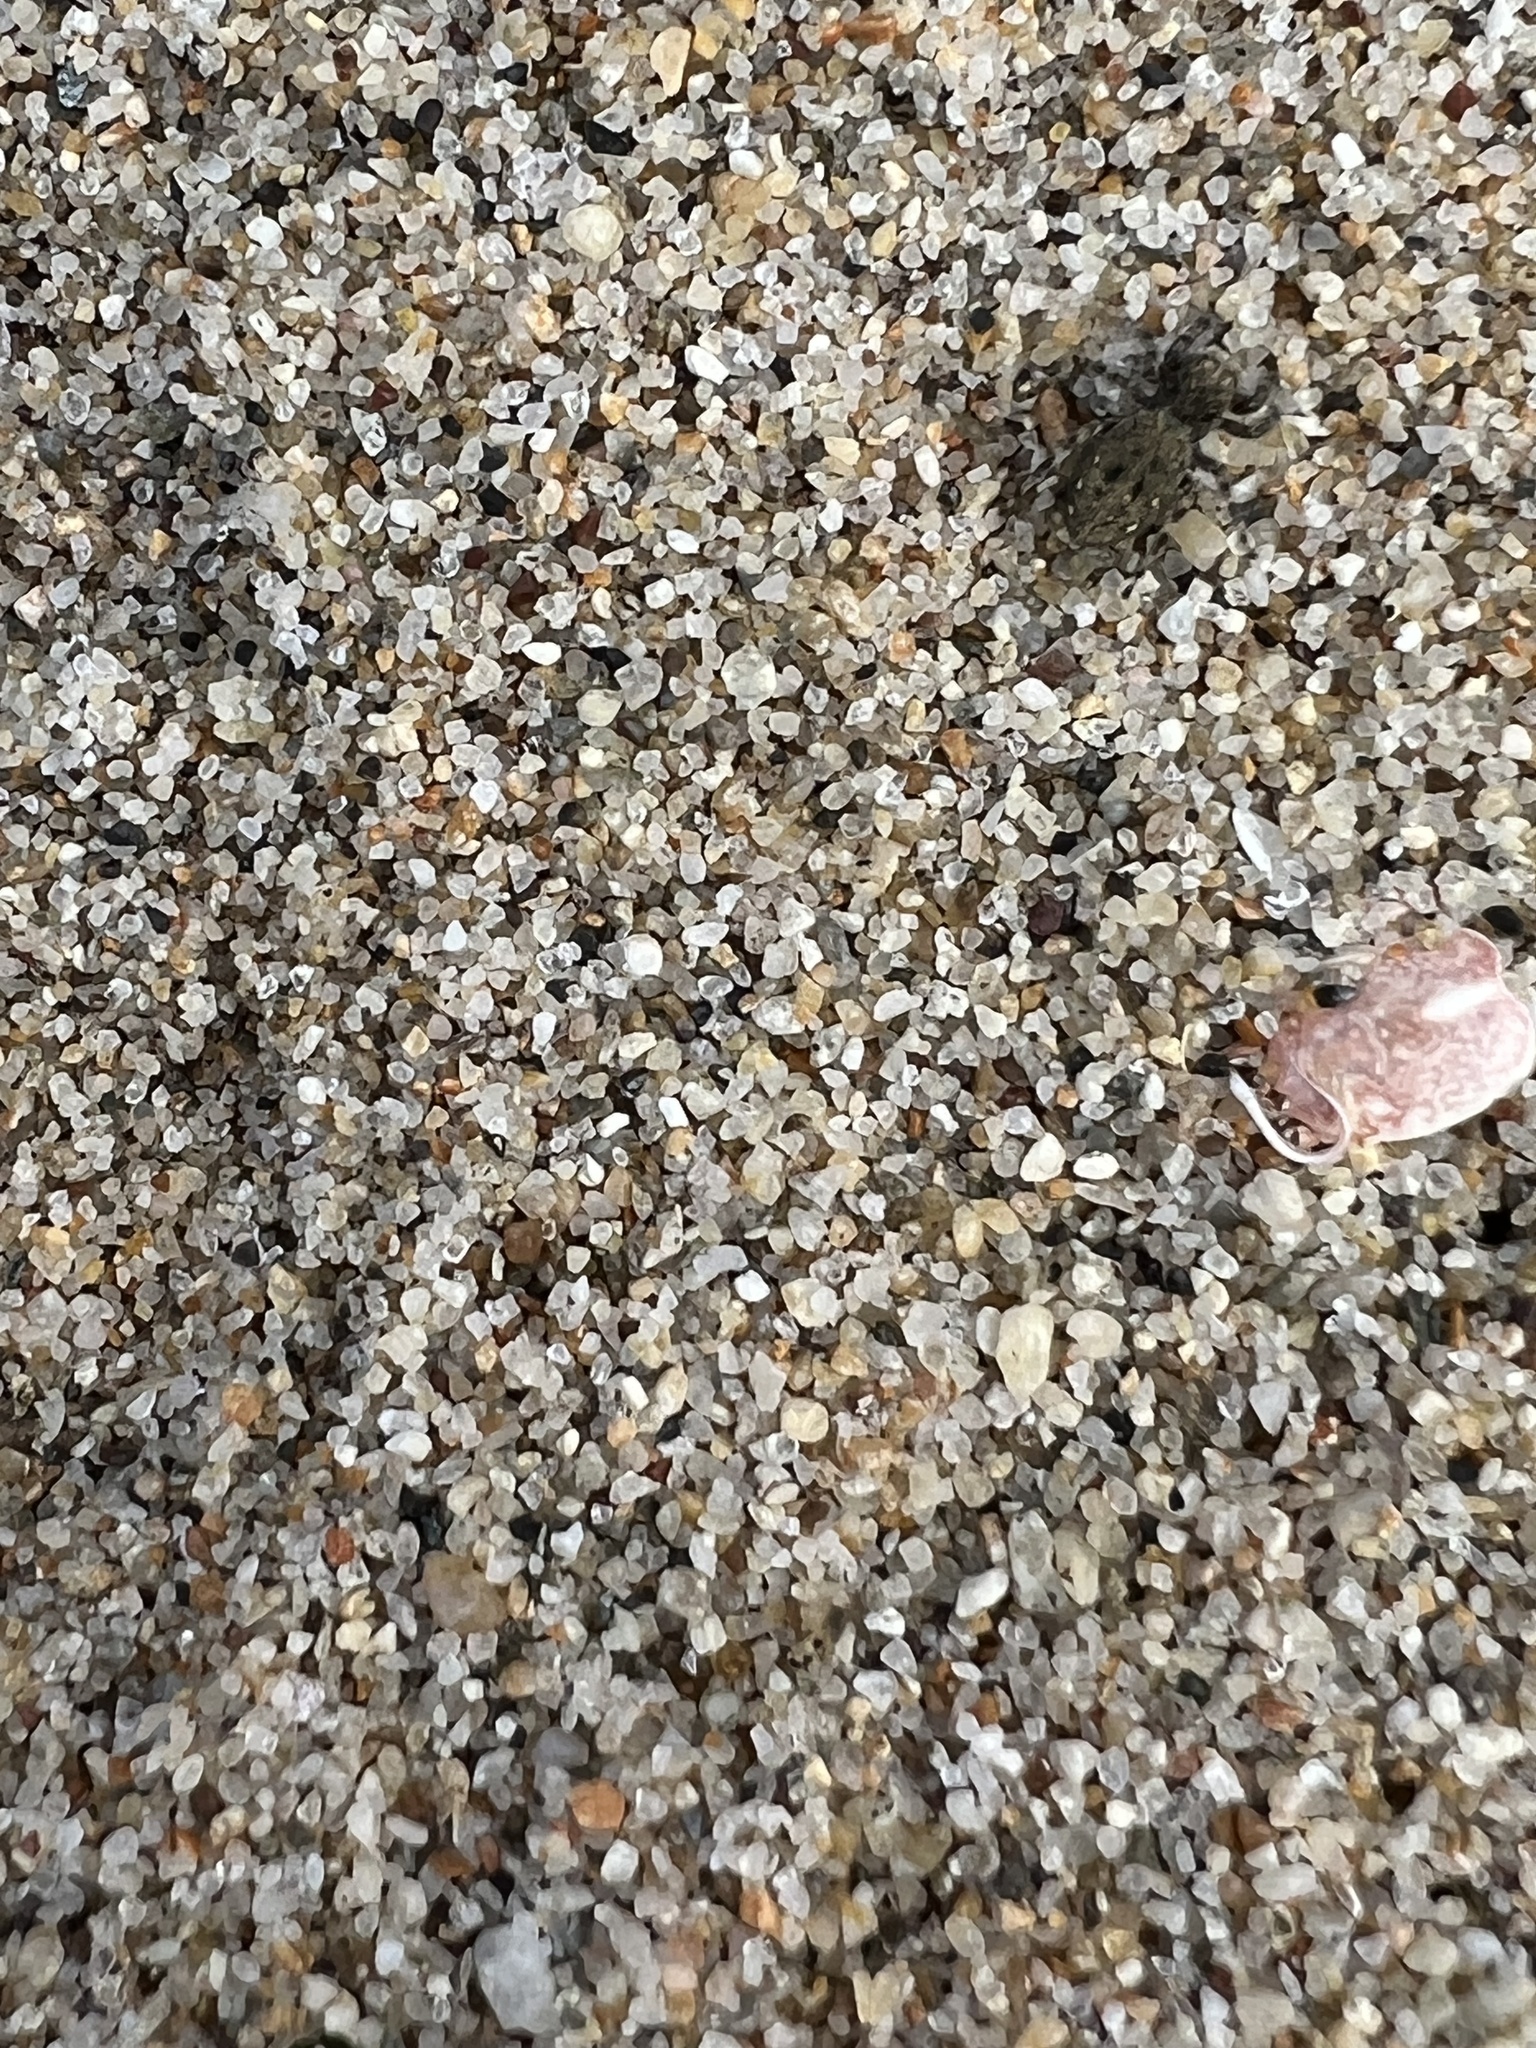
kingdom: Animalia
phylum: Arthropoda
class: Arachnida
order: Araneae
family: Salticidae
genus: Terralonus
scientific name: Terralonus californicus
